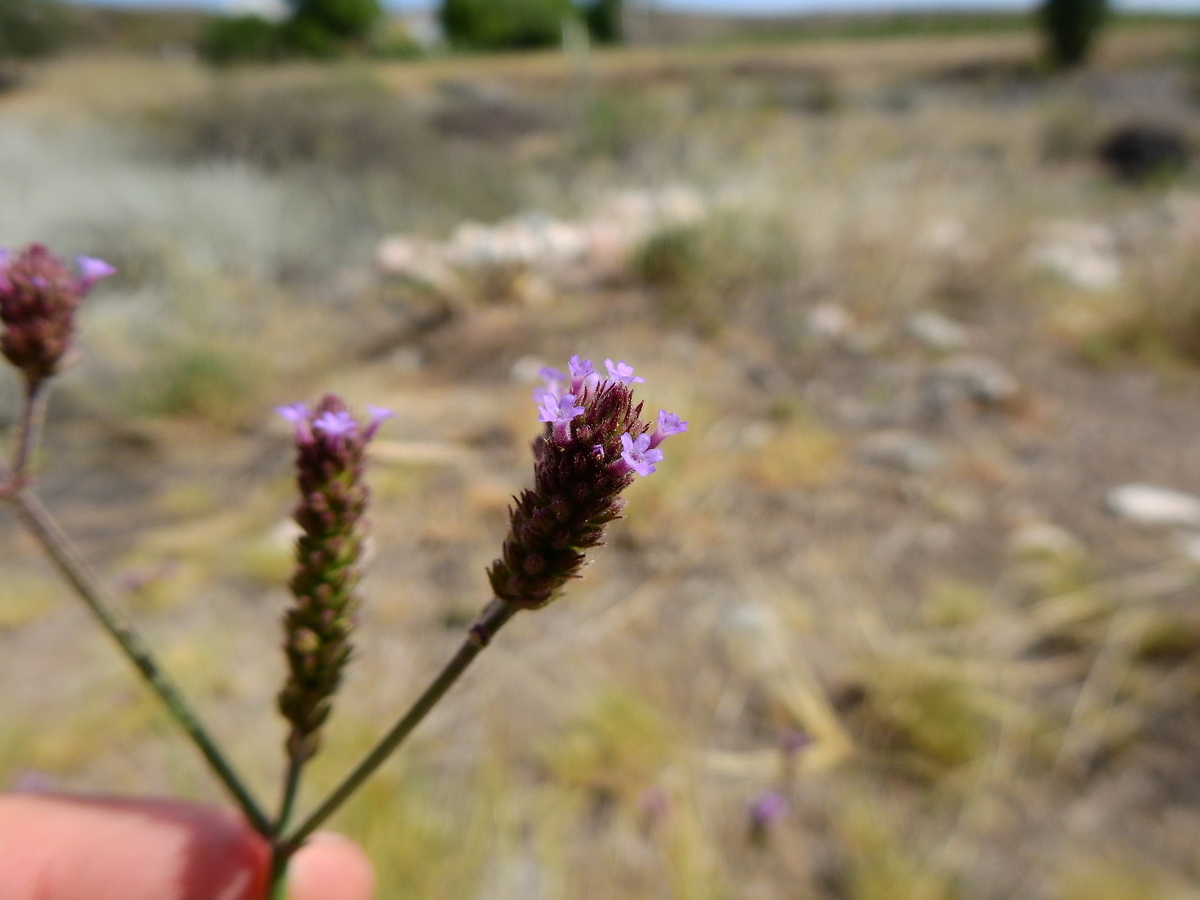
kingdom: Plantae
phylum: Tracheophyta
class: Magnoliopsida
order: Lamiales
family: Verbenaceae
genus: Verbena
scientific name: Verbena bonariensis
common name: Purpletop vervain
